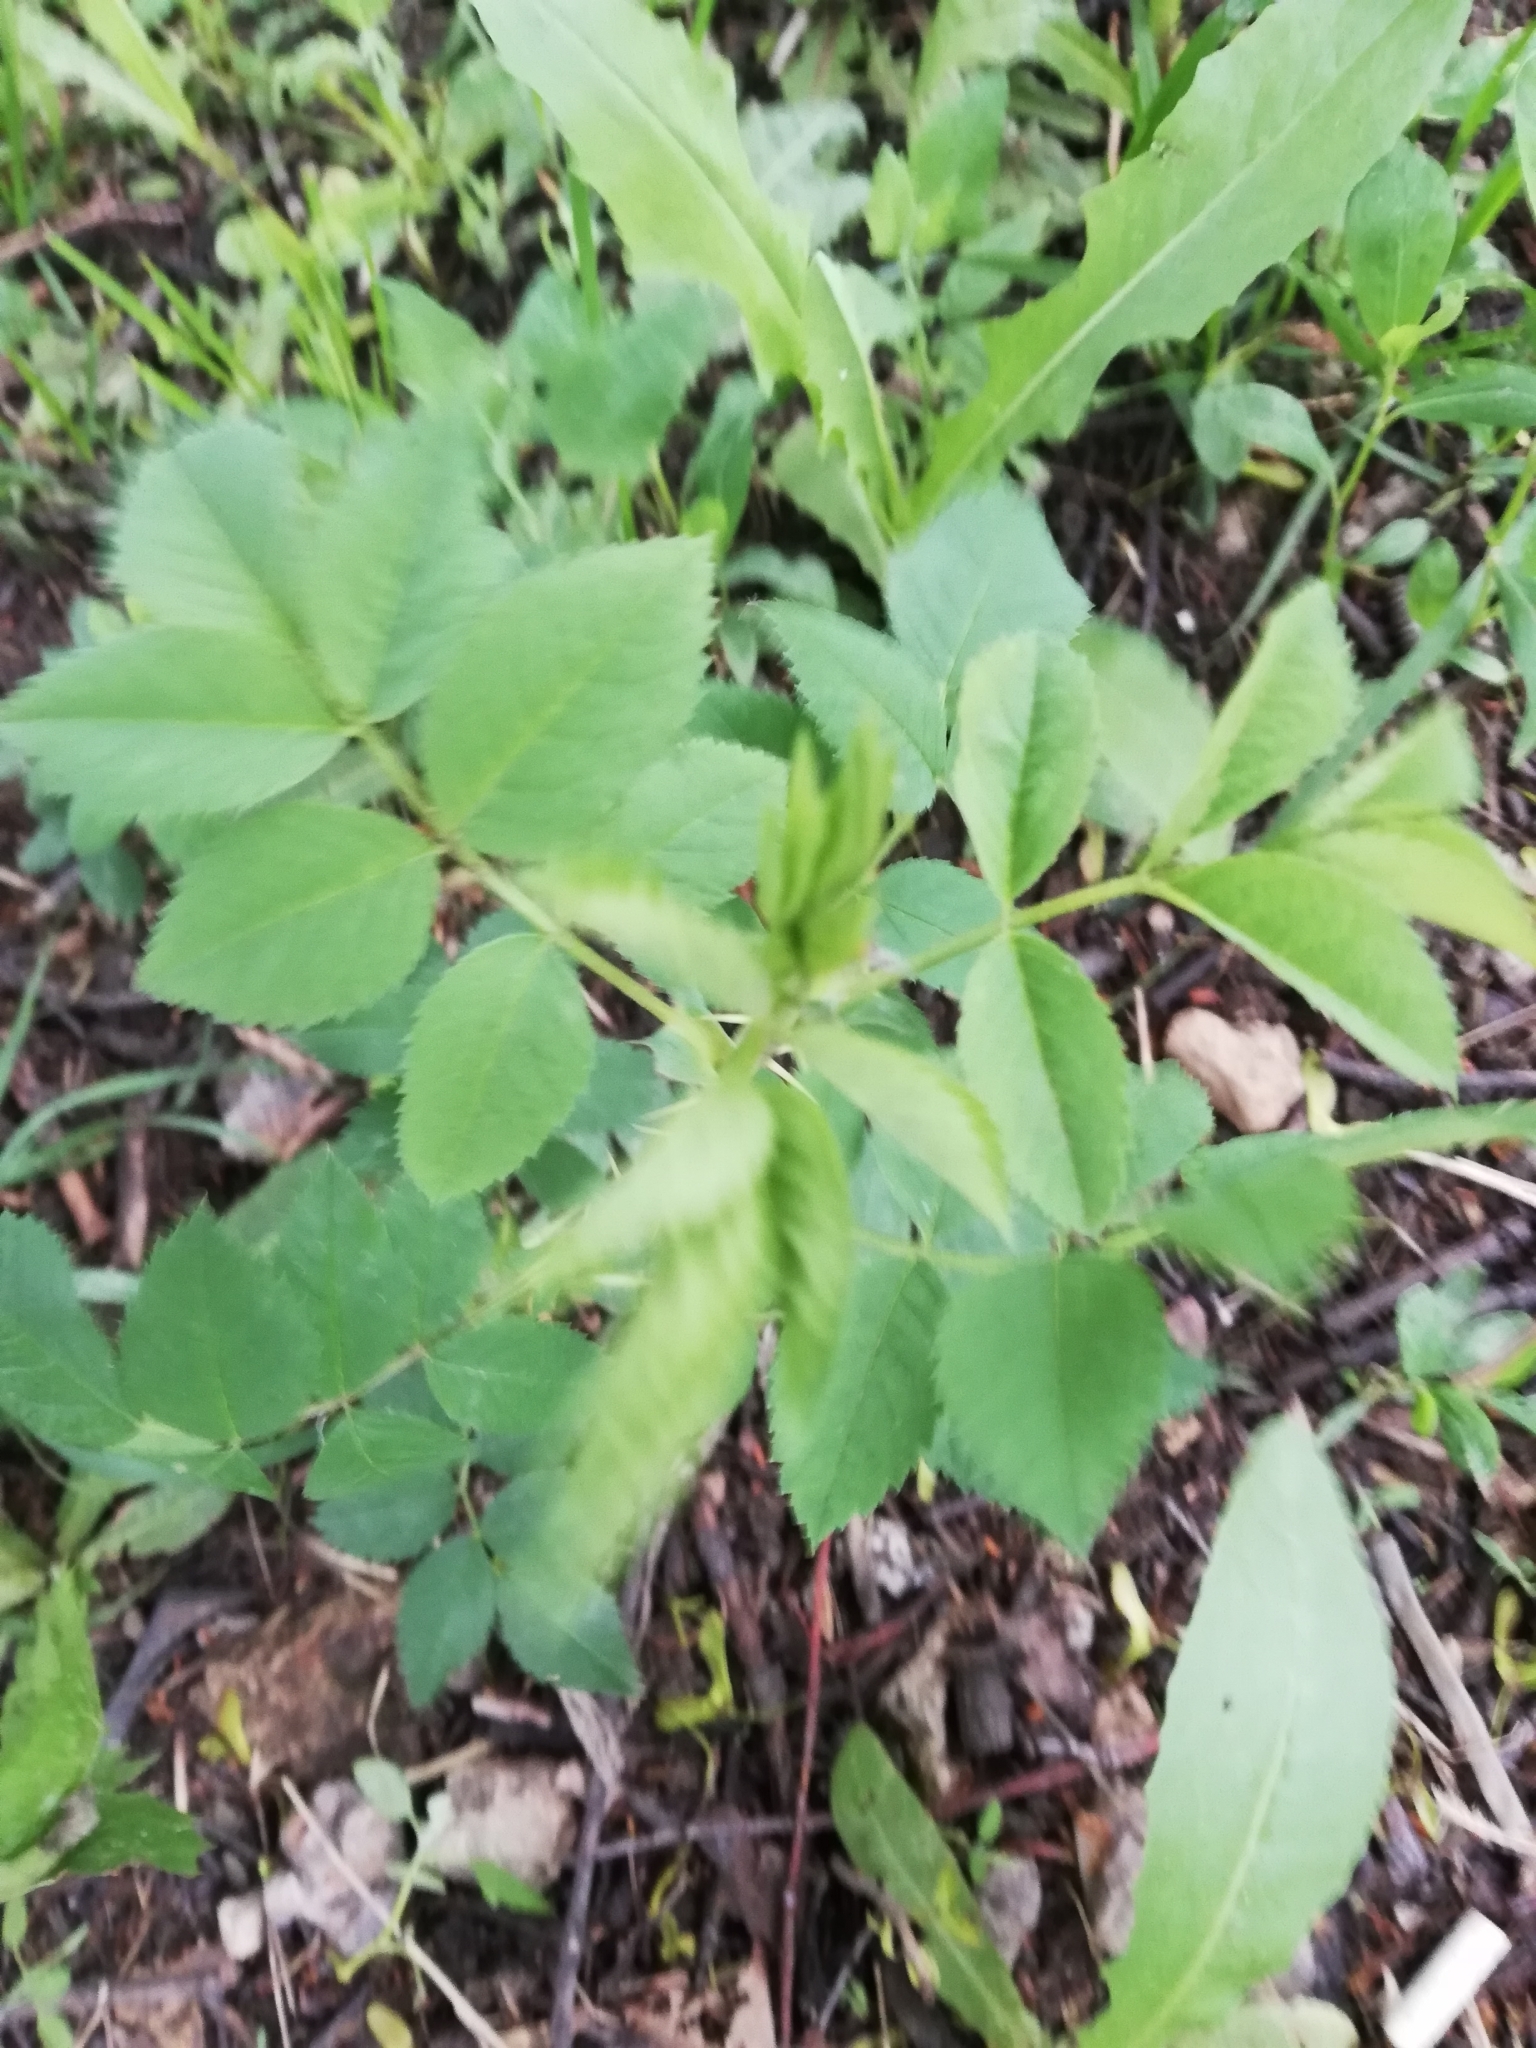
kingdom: Plantae
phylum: Tracheophyta
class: Magnoliopsida
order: Rosales
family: Rosaceae
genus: Rosa
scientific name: Rosa
